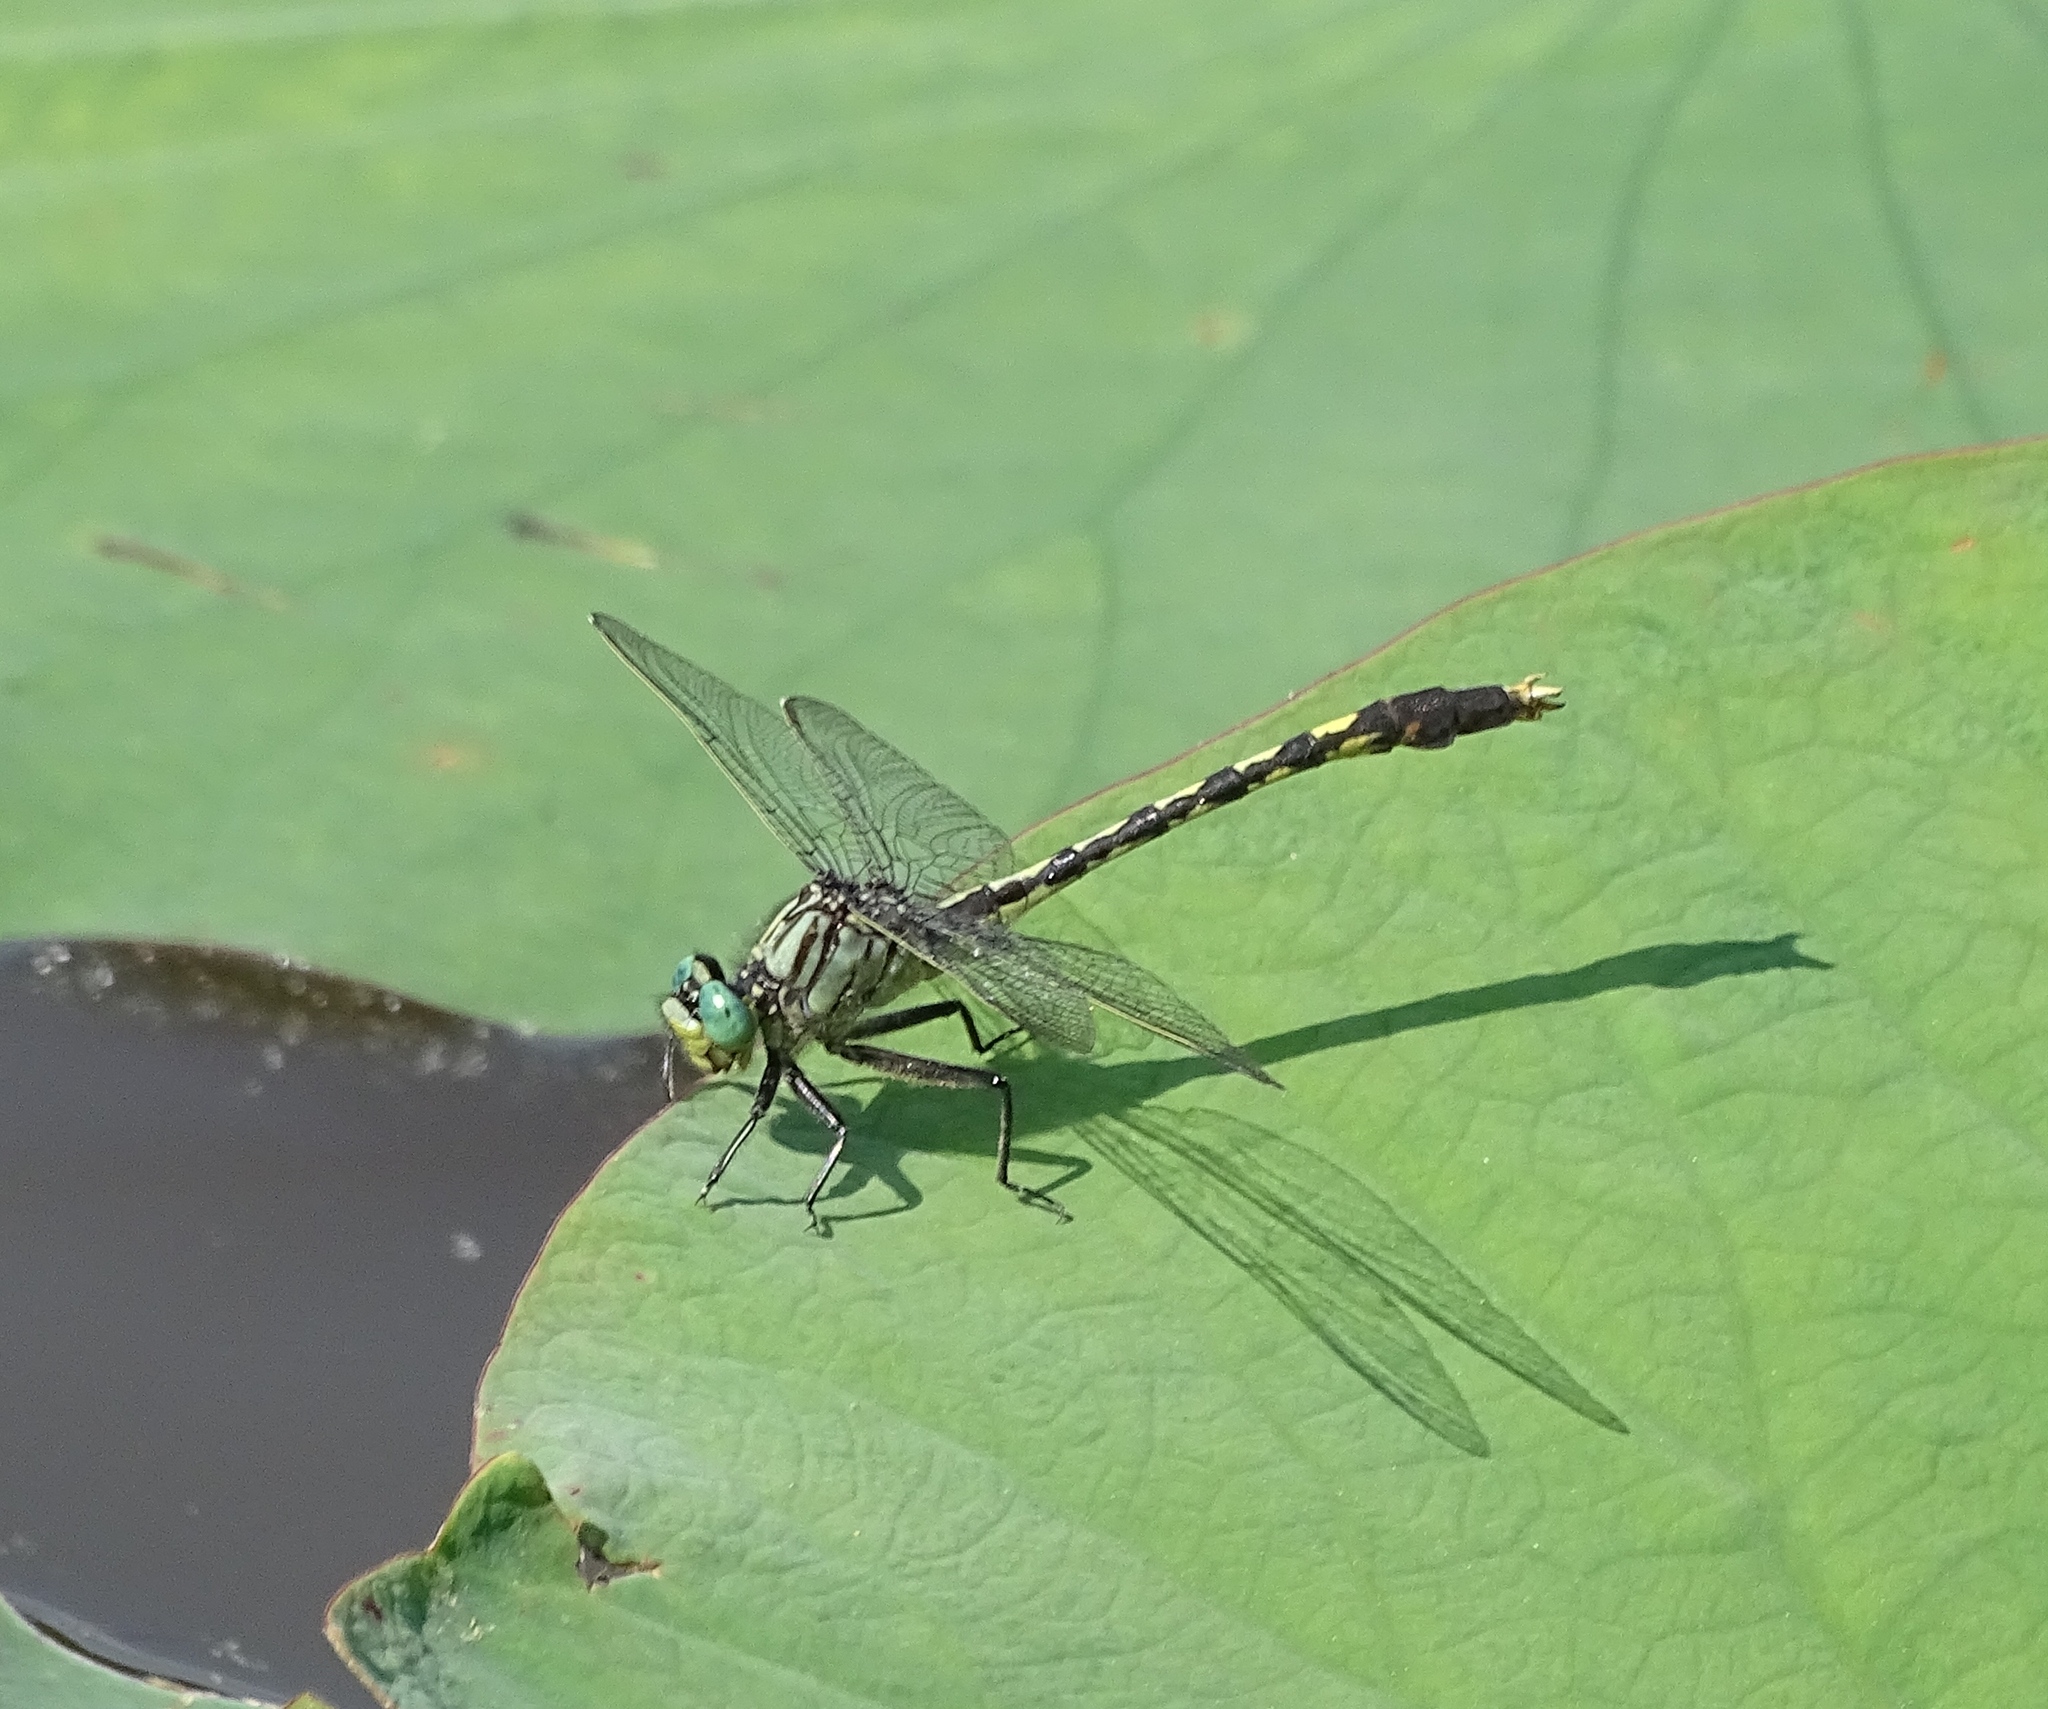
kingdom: Animalia
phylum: Arthropoda
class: Insecta
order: Odonata
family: Gomphidae
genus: Arigomphus
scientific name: Arigomphus villosipes
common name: Unicorn clubtail
